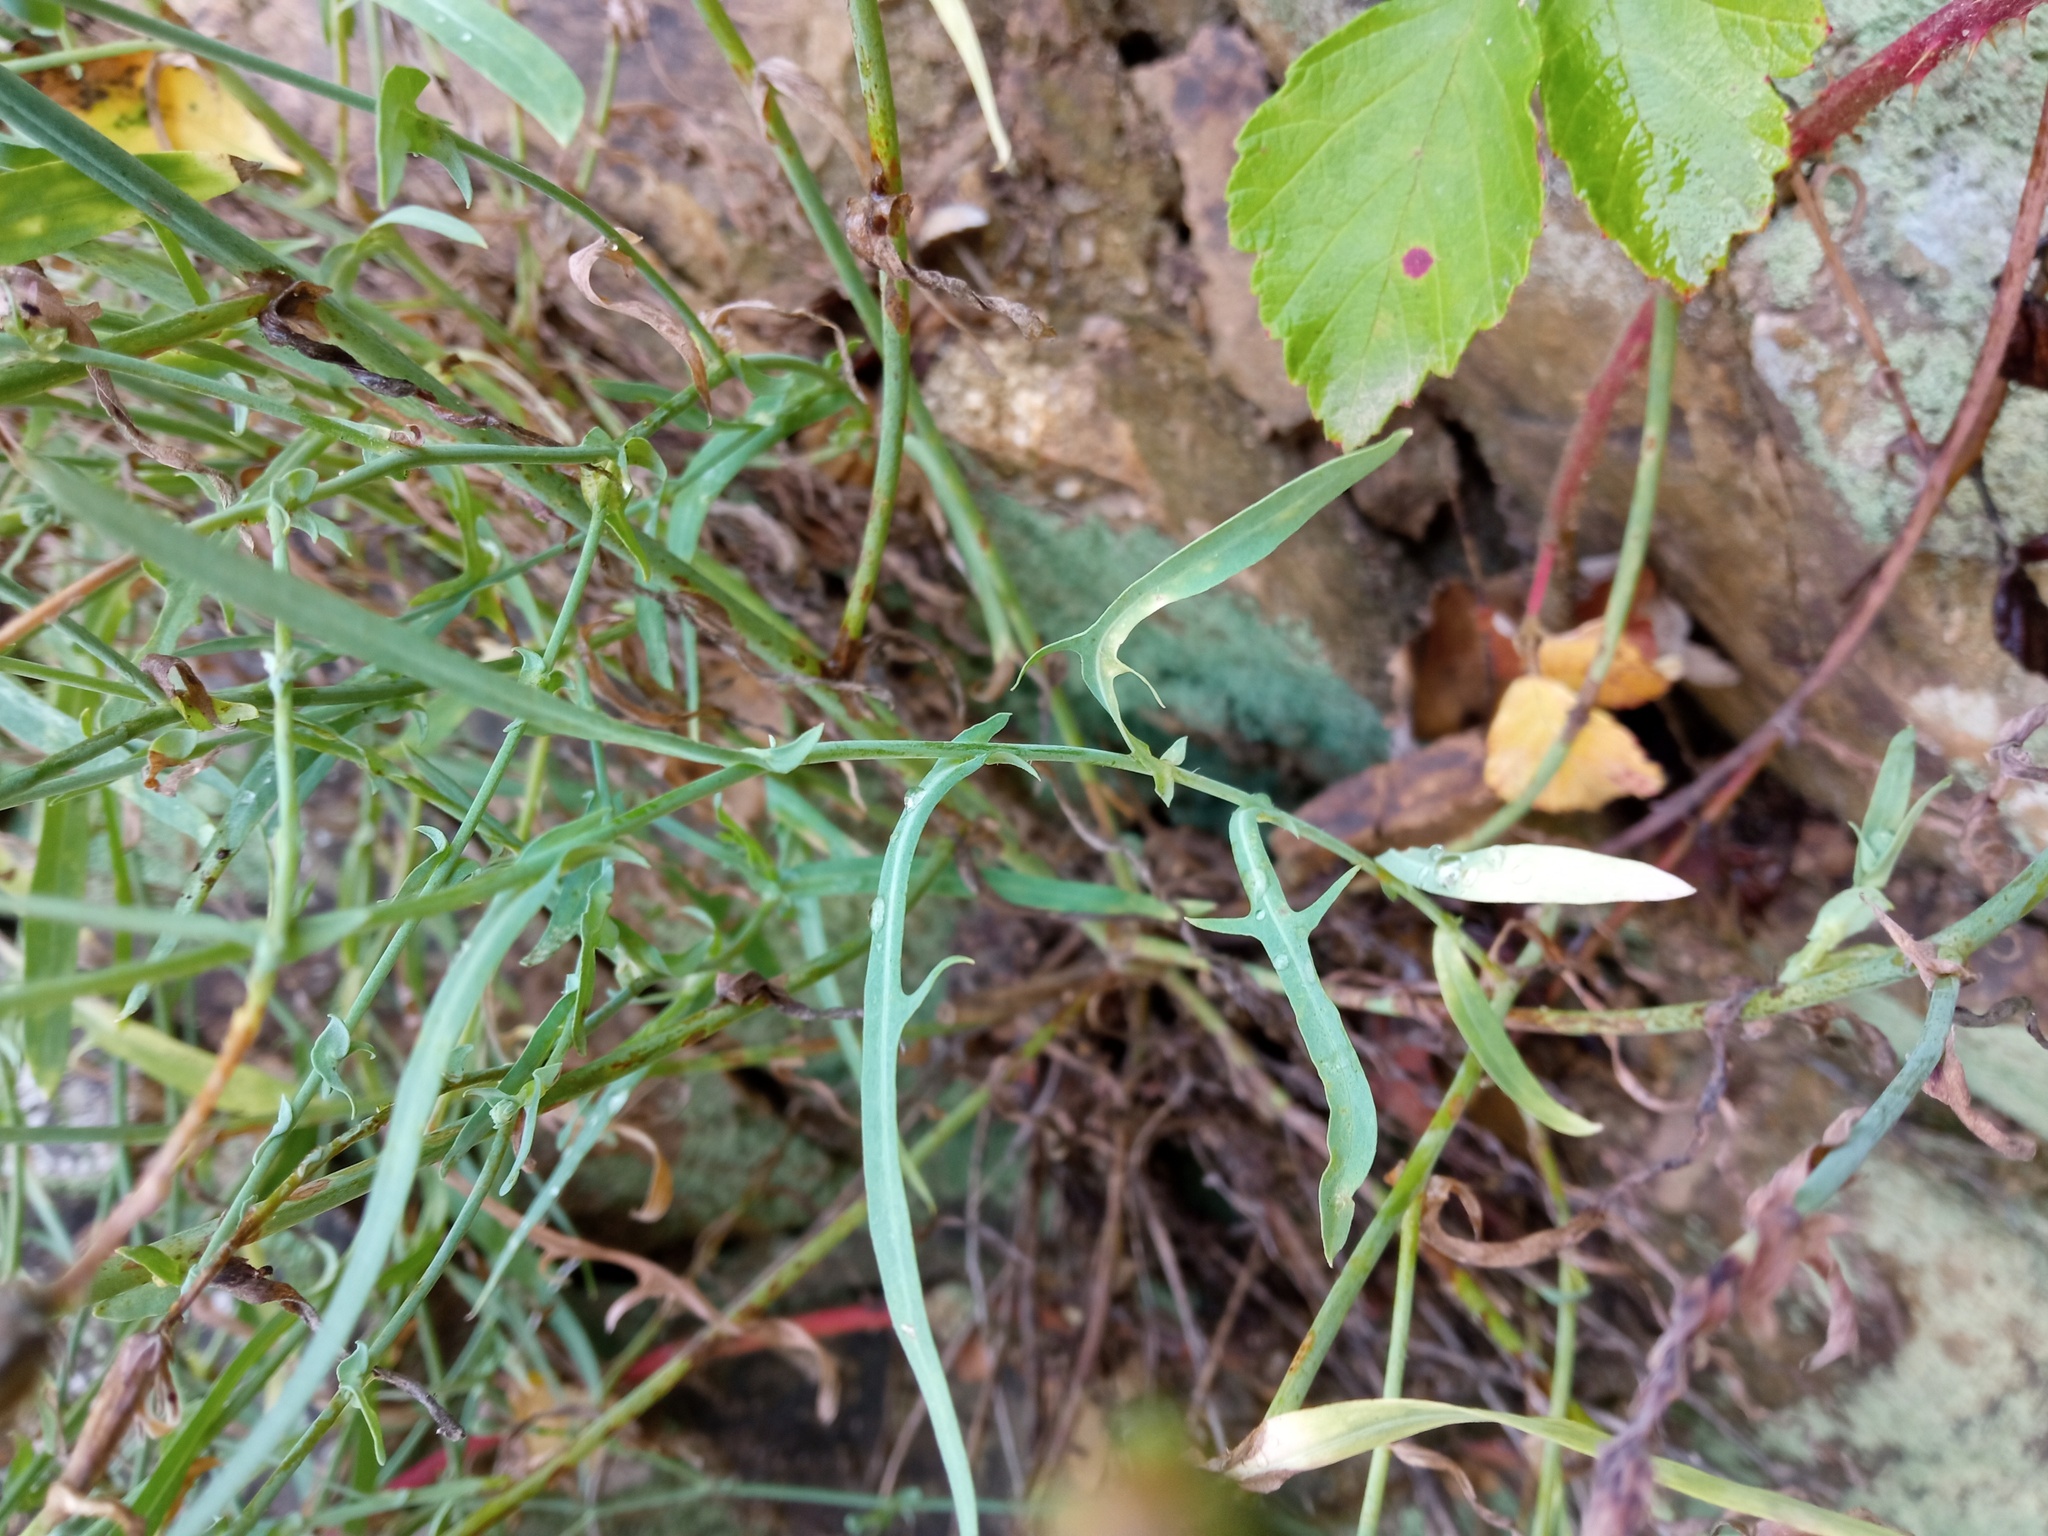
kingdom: Plantae
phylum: Tracheophyta
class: Magnoliopsida
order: Asterales
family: Asteraceae
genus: Lactuca
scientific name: Lactuca tenerrima
